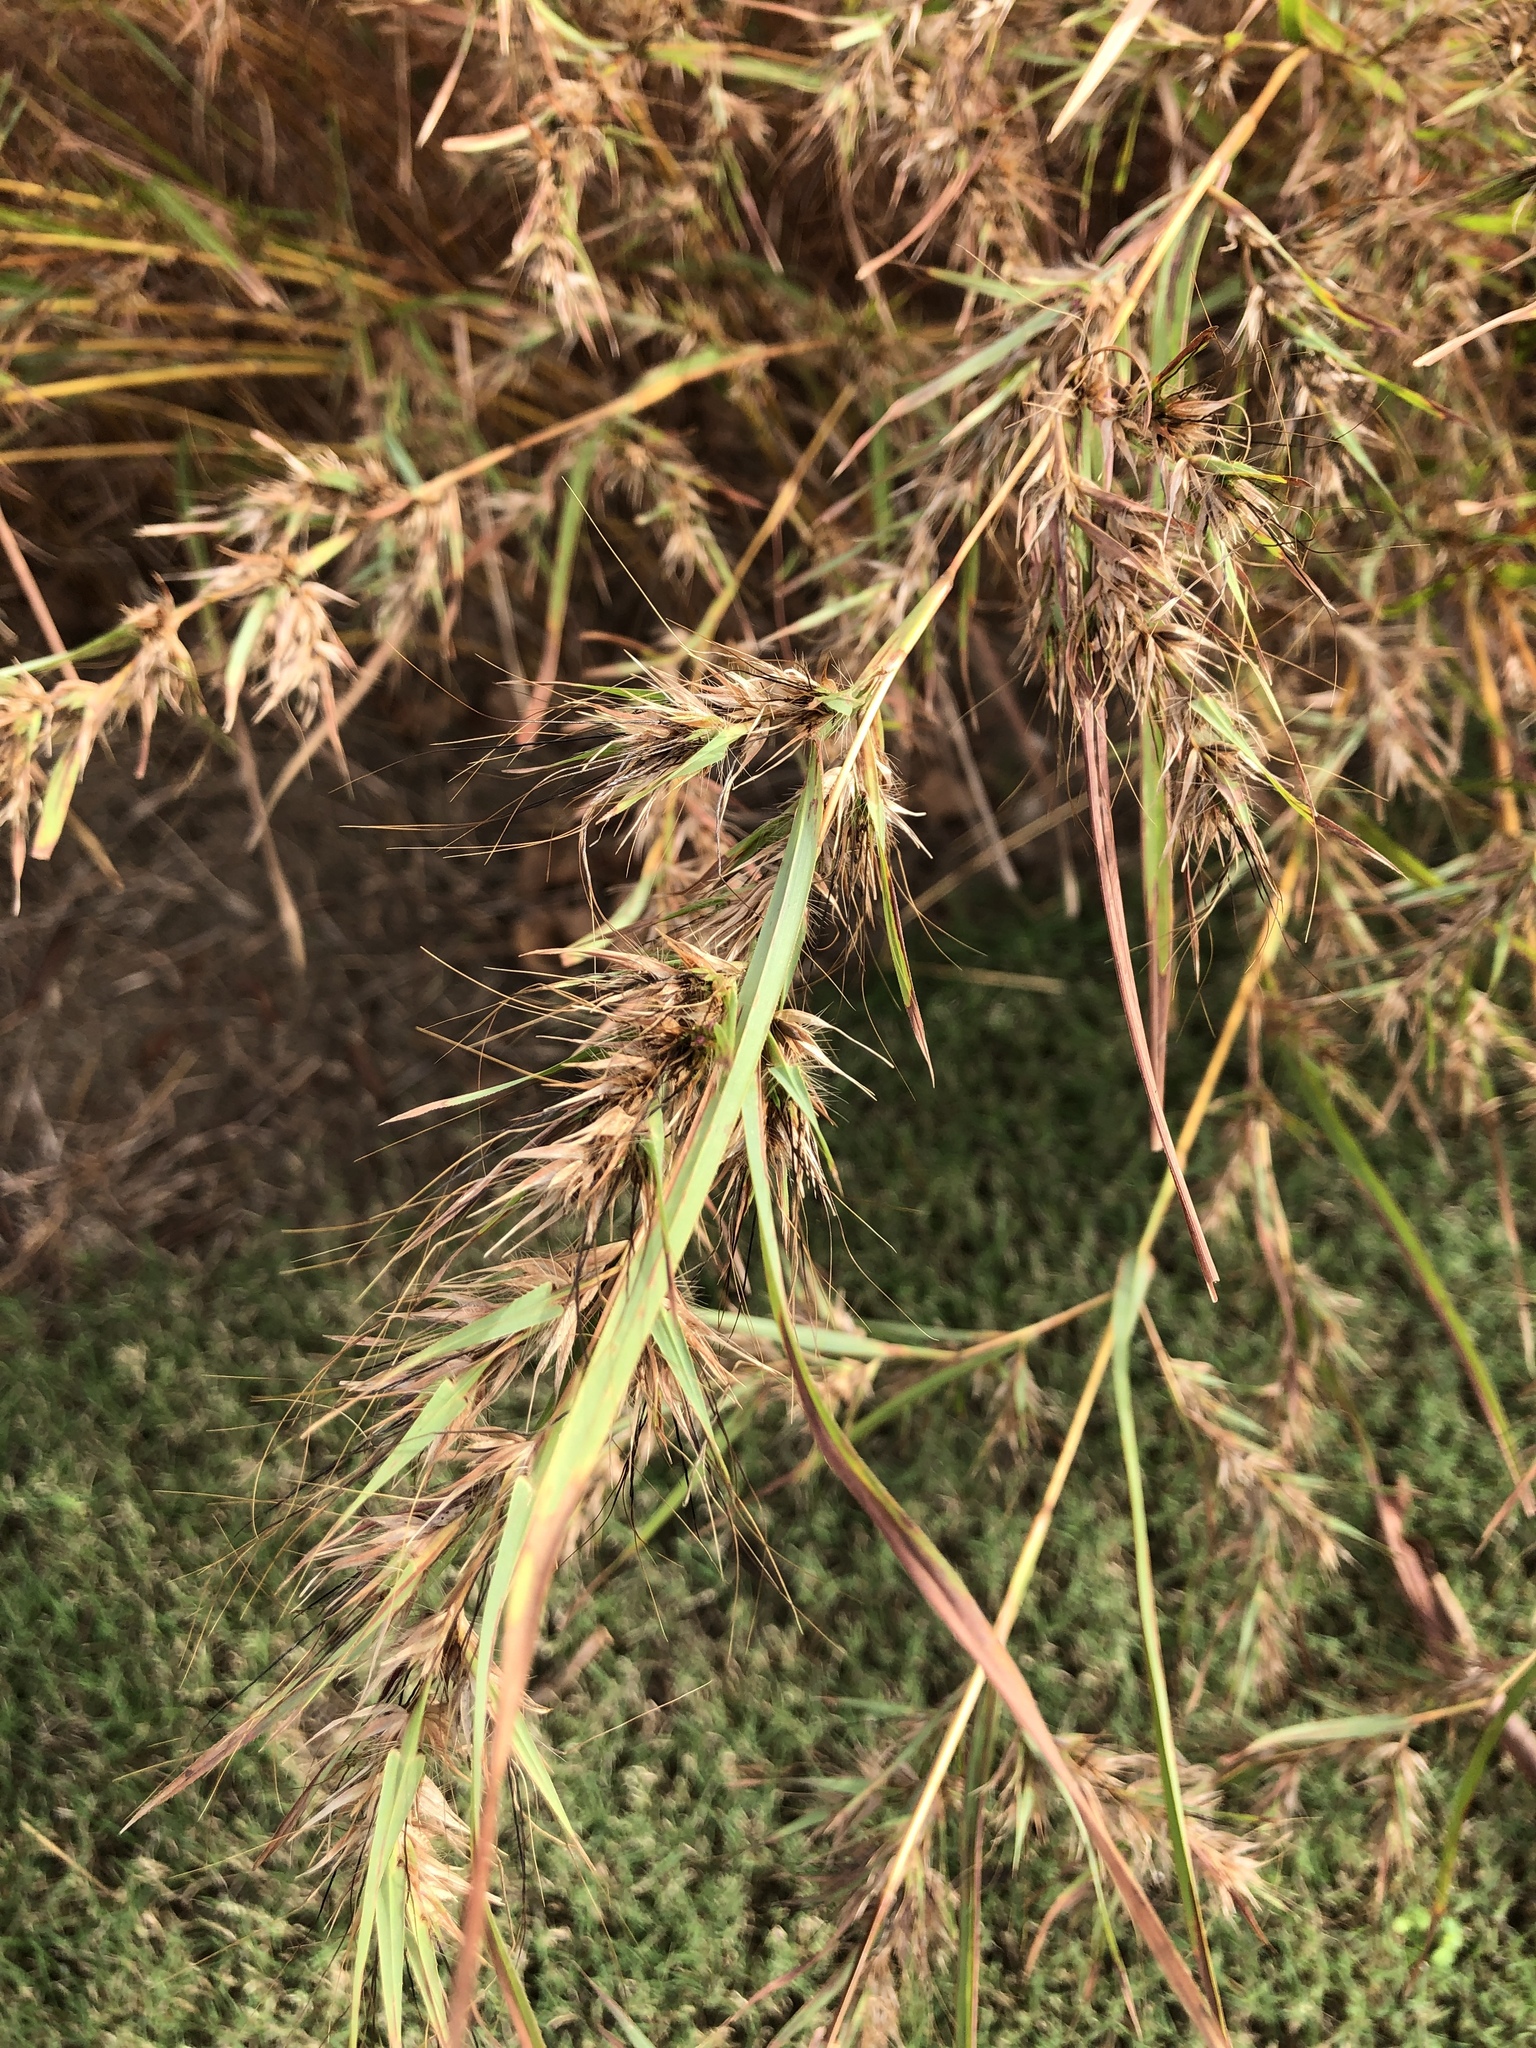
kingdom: Plantae
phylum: Tracheophyta
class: Liliopsida
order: Poales
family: Poaceae
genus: Themeda
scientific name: Themeda quadrivalvis
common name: Kangaroo grass
